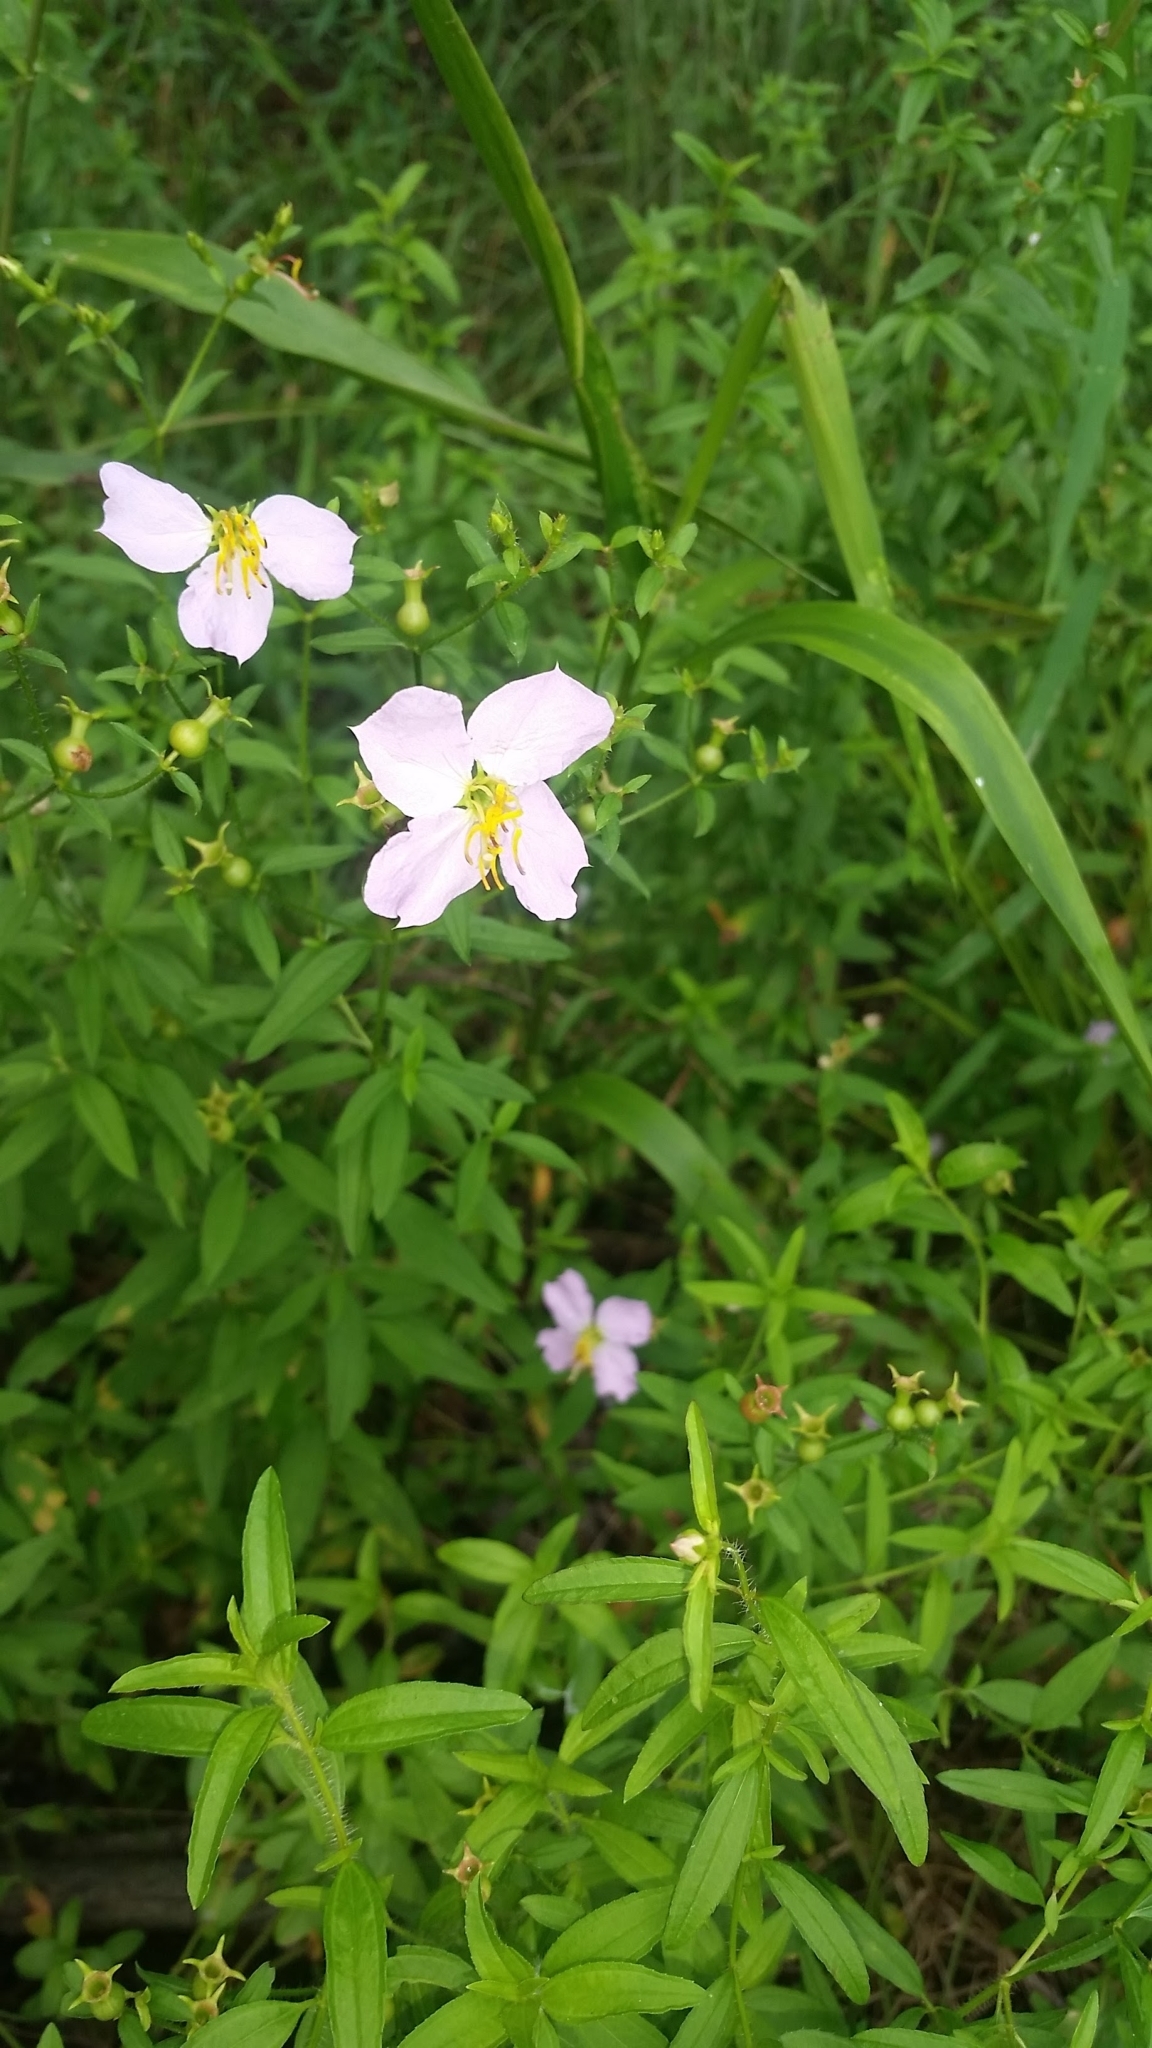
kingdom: Plantae
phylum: Tracheophyta
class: Magnoliopsida
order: Myrtales
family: Melastomataceae
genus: Rhexia
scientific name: Rhexia mariana
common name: Dull meadow-pitcher
